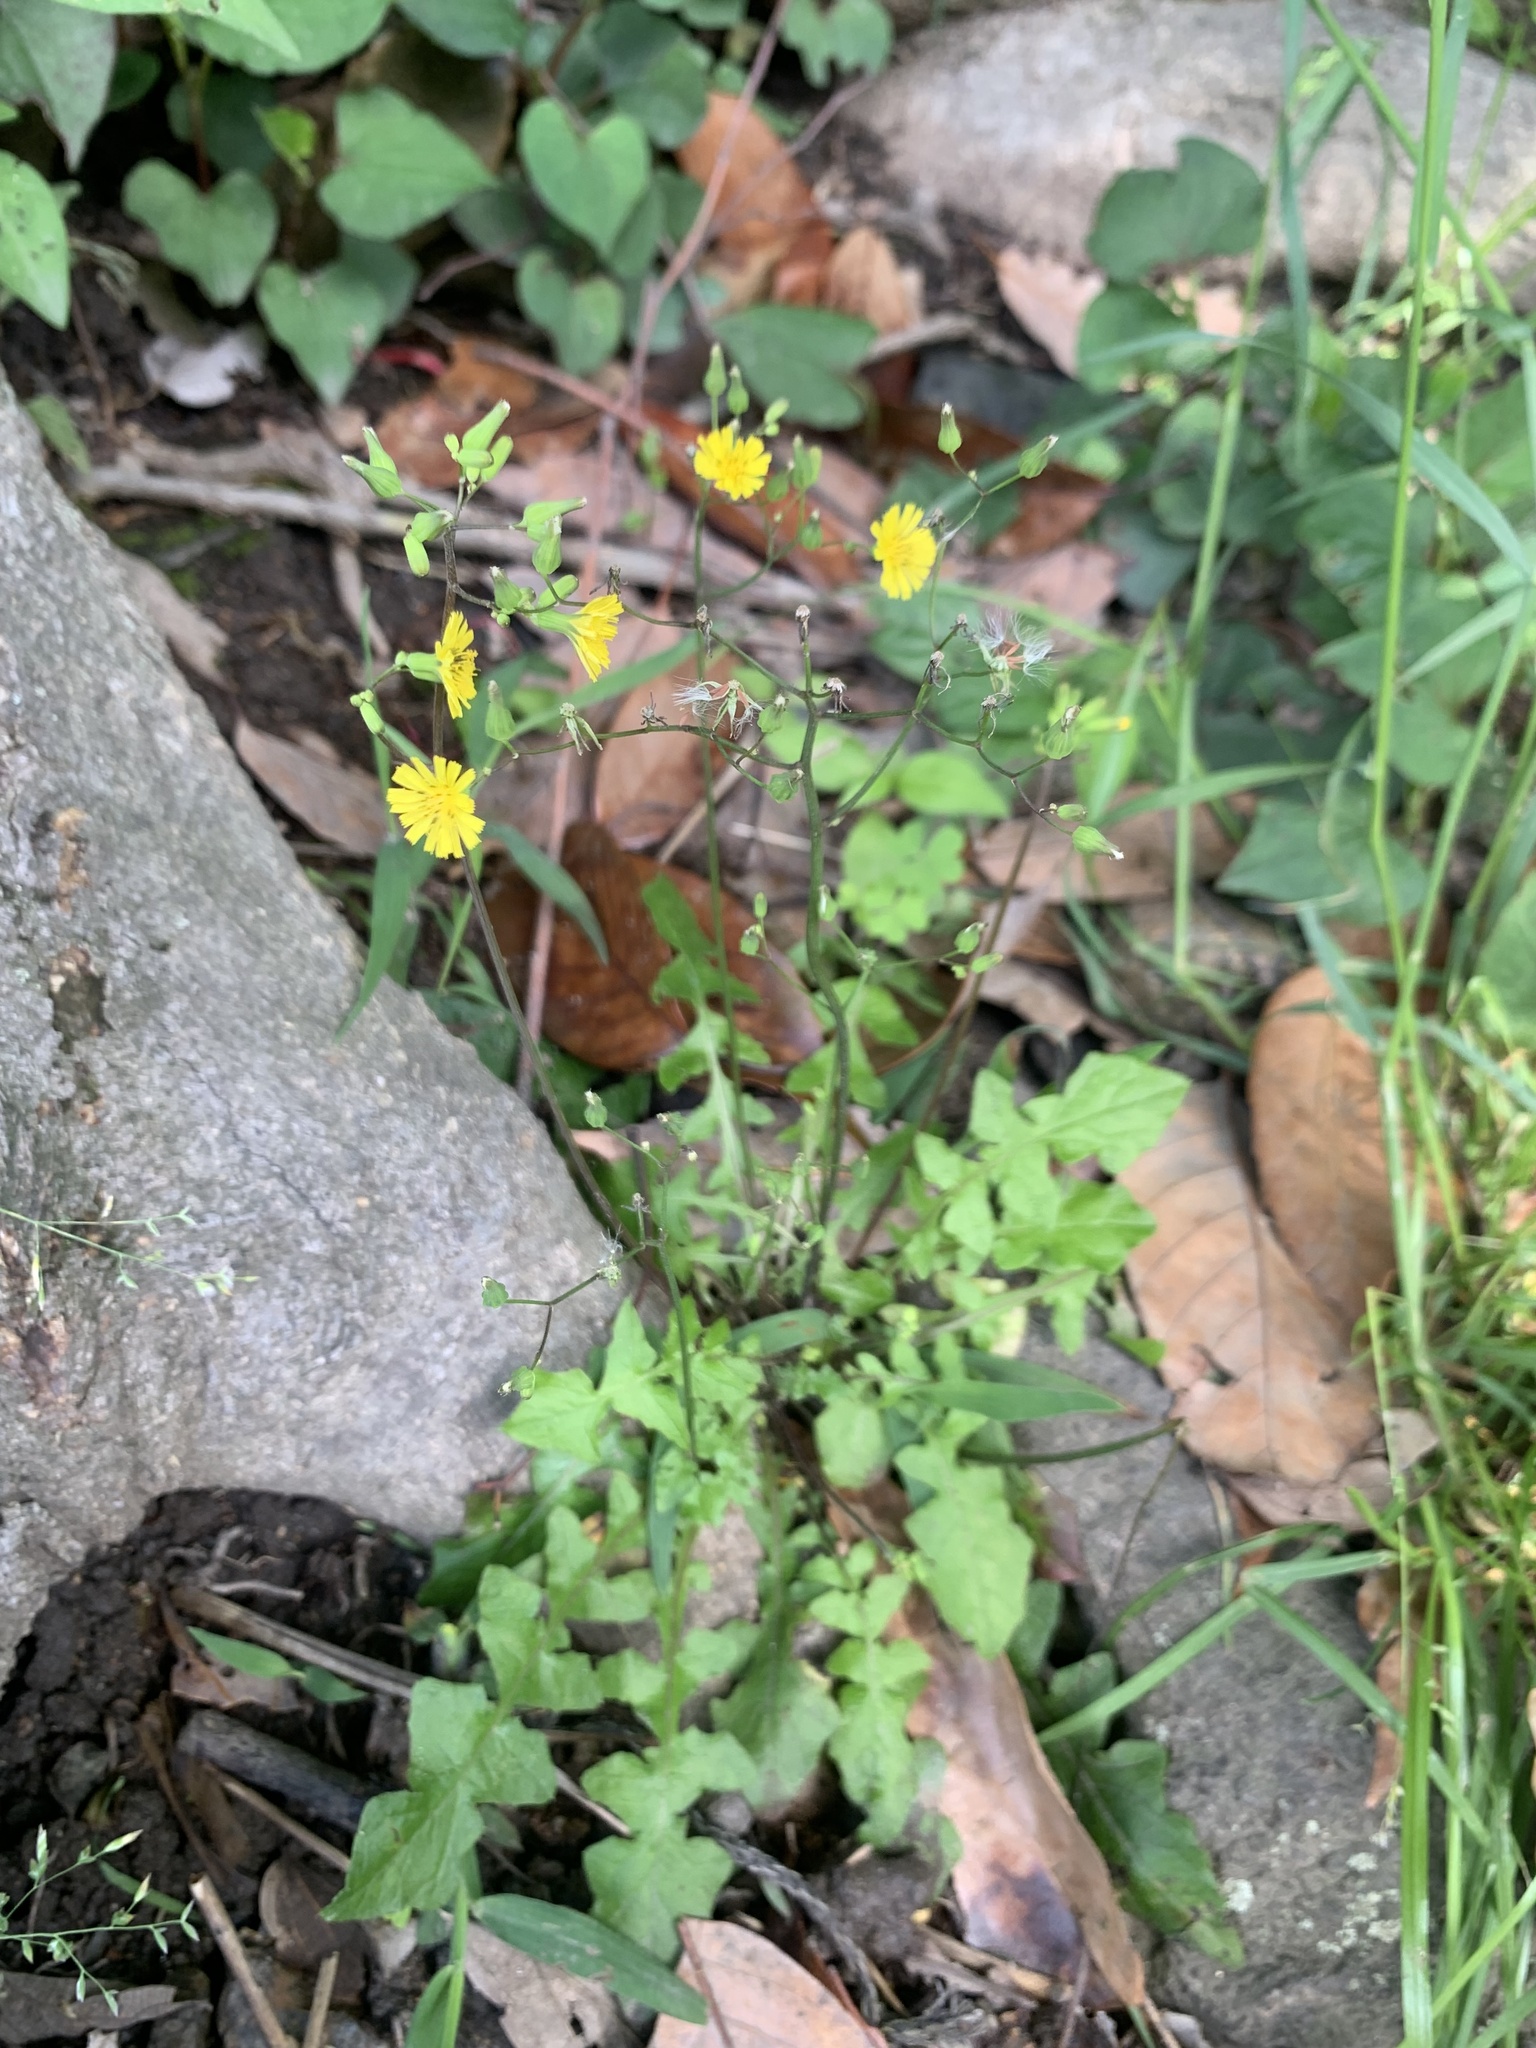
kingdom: Plantae
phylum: Tracheophyta
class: Magnoliopsida
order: Asterales
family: Asteraceae
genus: Youngia
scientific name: Youngia japonica
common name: Oriental false hawksbeard
